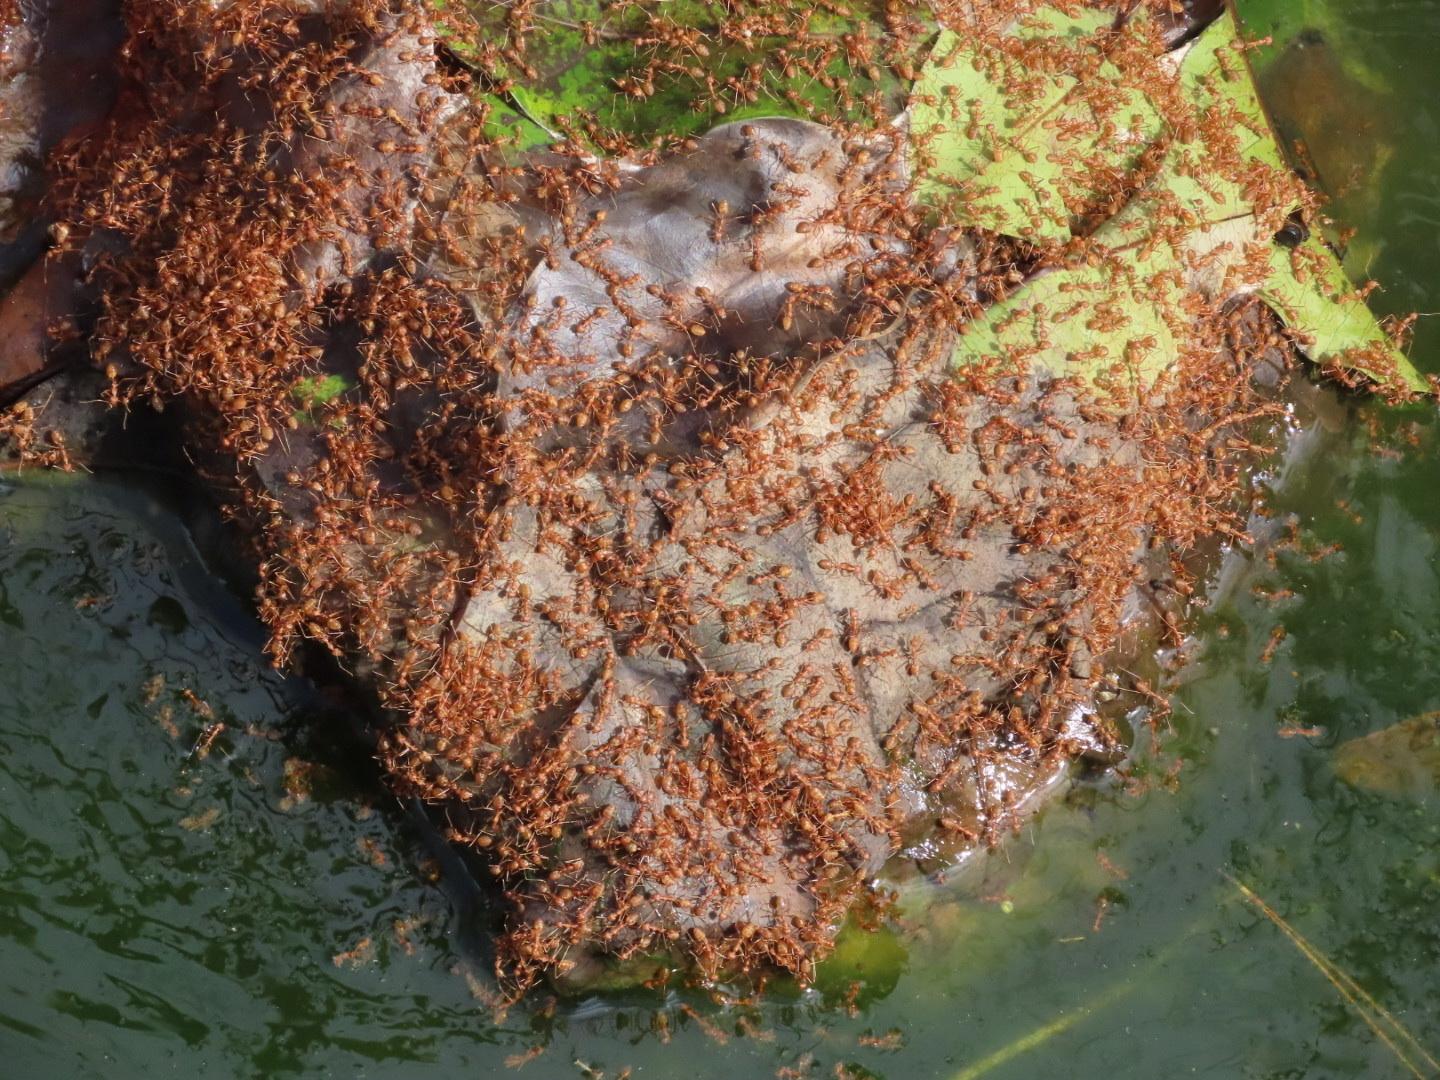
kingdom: Animalia
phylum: Arthropoda
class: Insecta
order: Hymenoptera
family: Formicidae
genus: Oecophylla
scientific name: Oecophylla smaragdina
